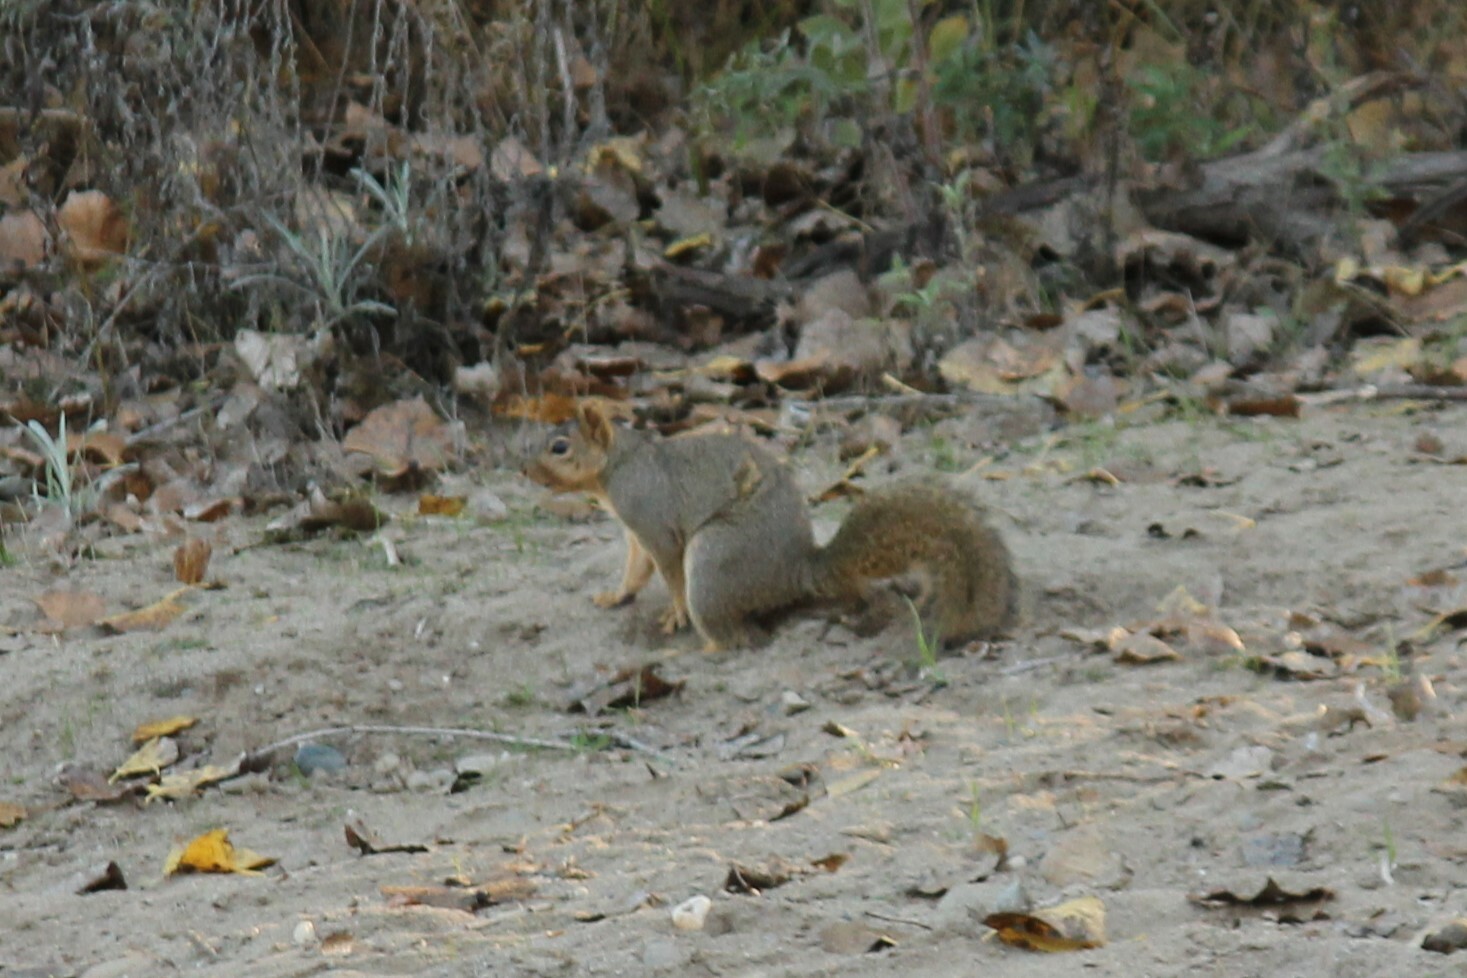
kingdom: Animalia
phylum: Chordata
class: Mammalia
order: Rodentia
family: Sciuridae
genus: Sciurus
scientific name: Sciurus niger
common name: Fox squirrel
